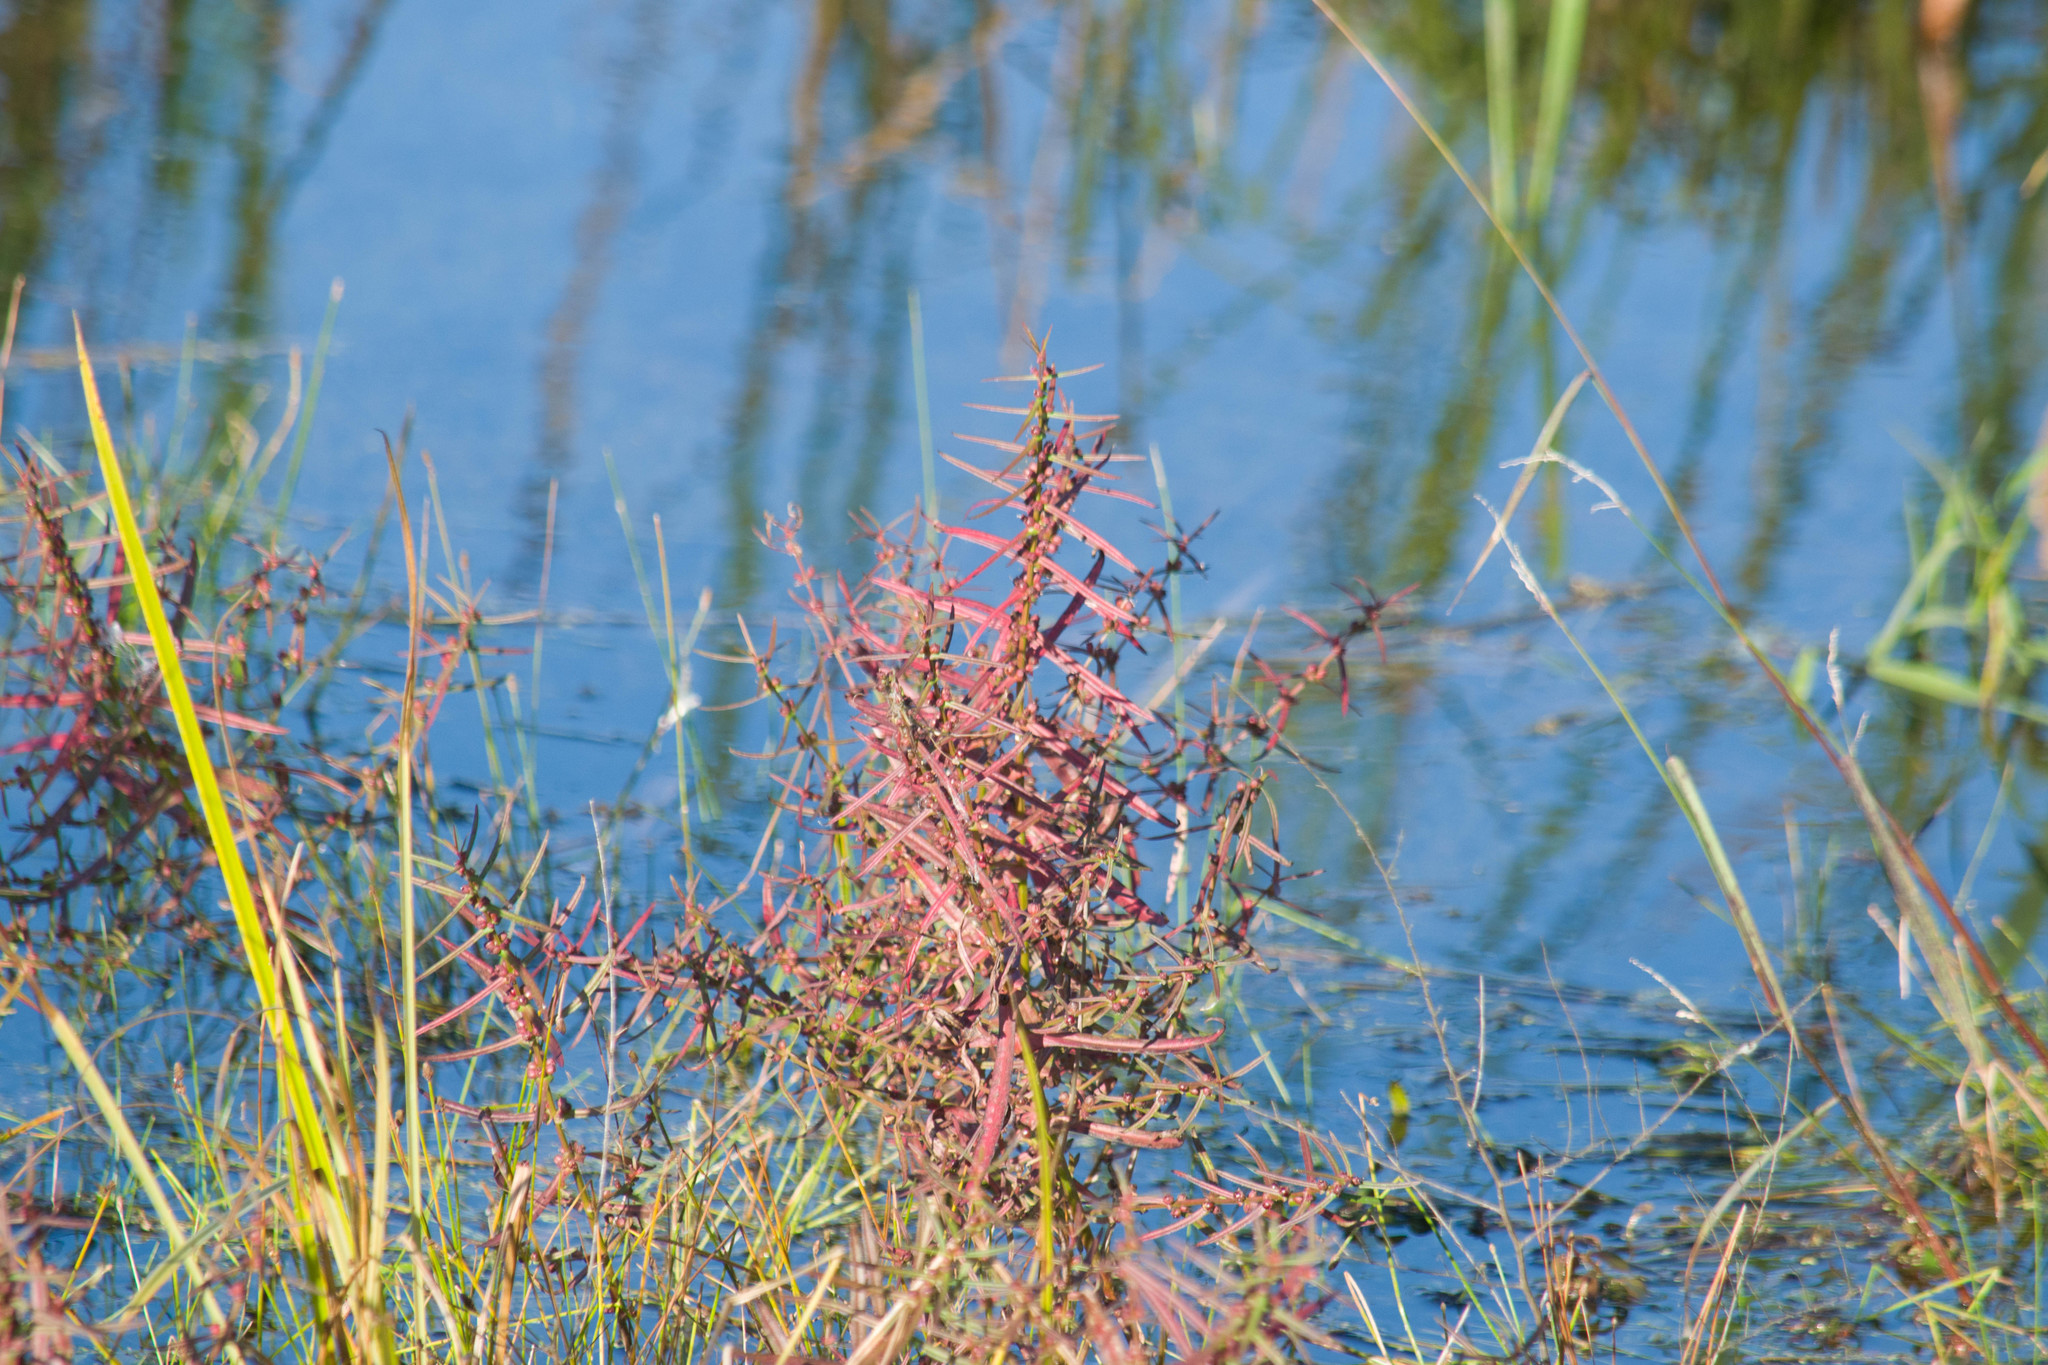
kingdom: Plantae
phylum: Tracheophyta
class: Magnoliopsida
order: Myrtales
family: Lythraceae
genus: Ammannia
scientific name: Ammannia coccinea
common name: Valley redstem
